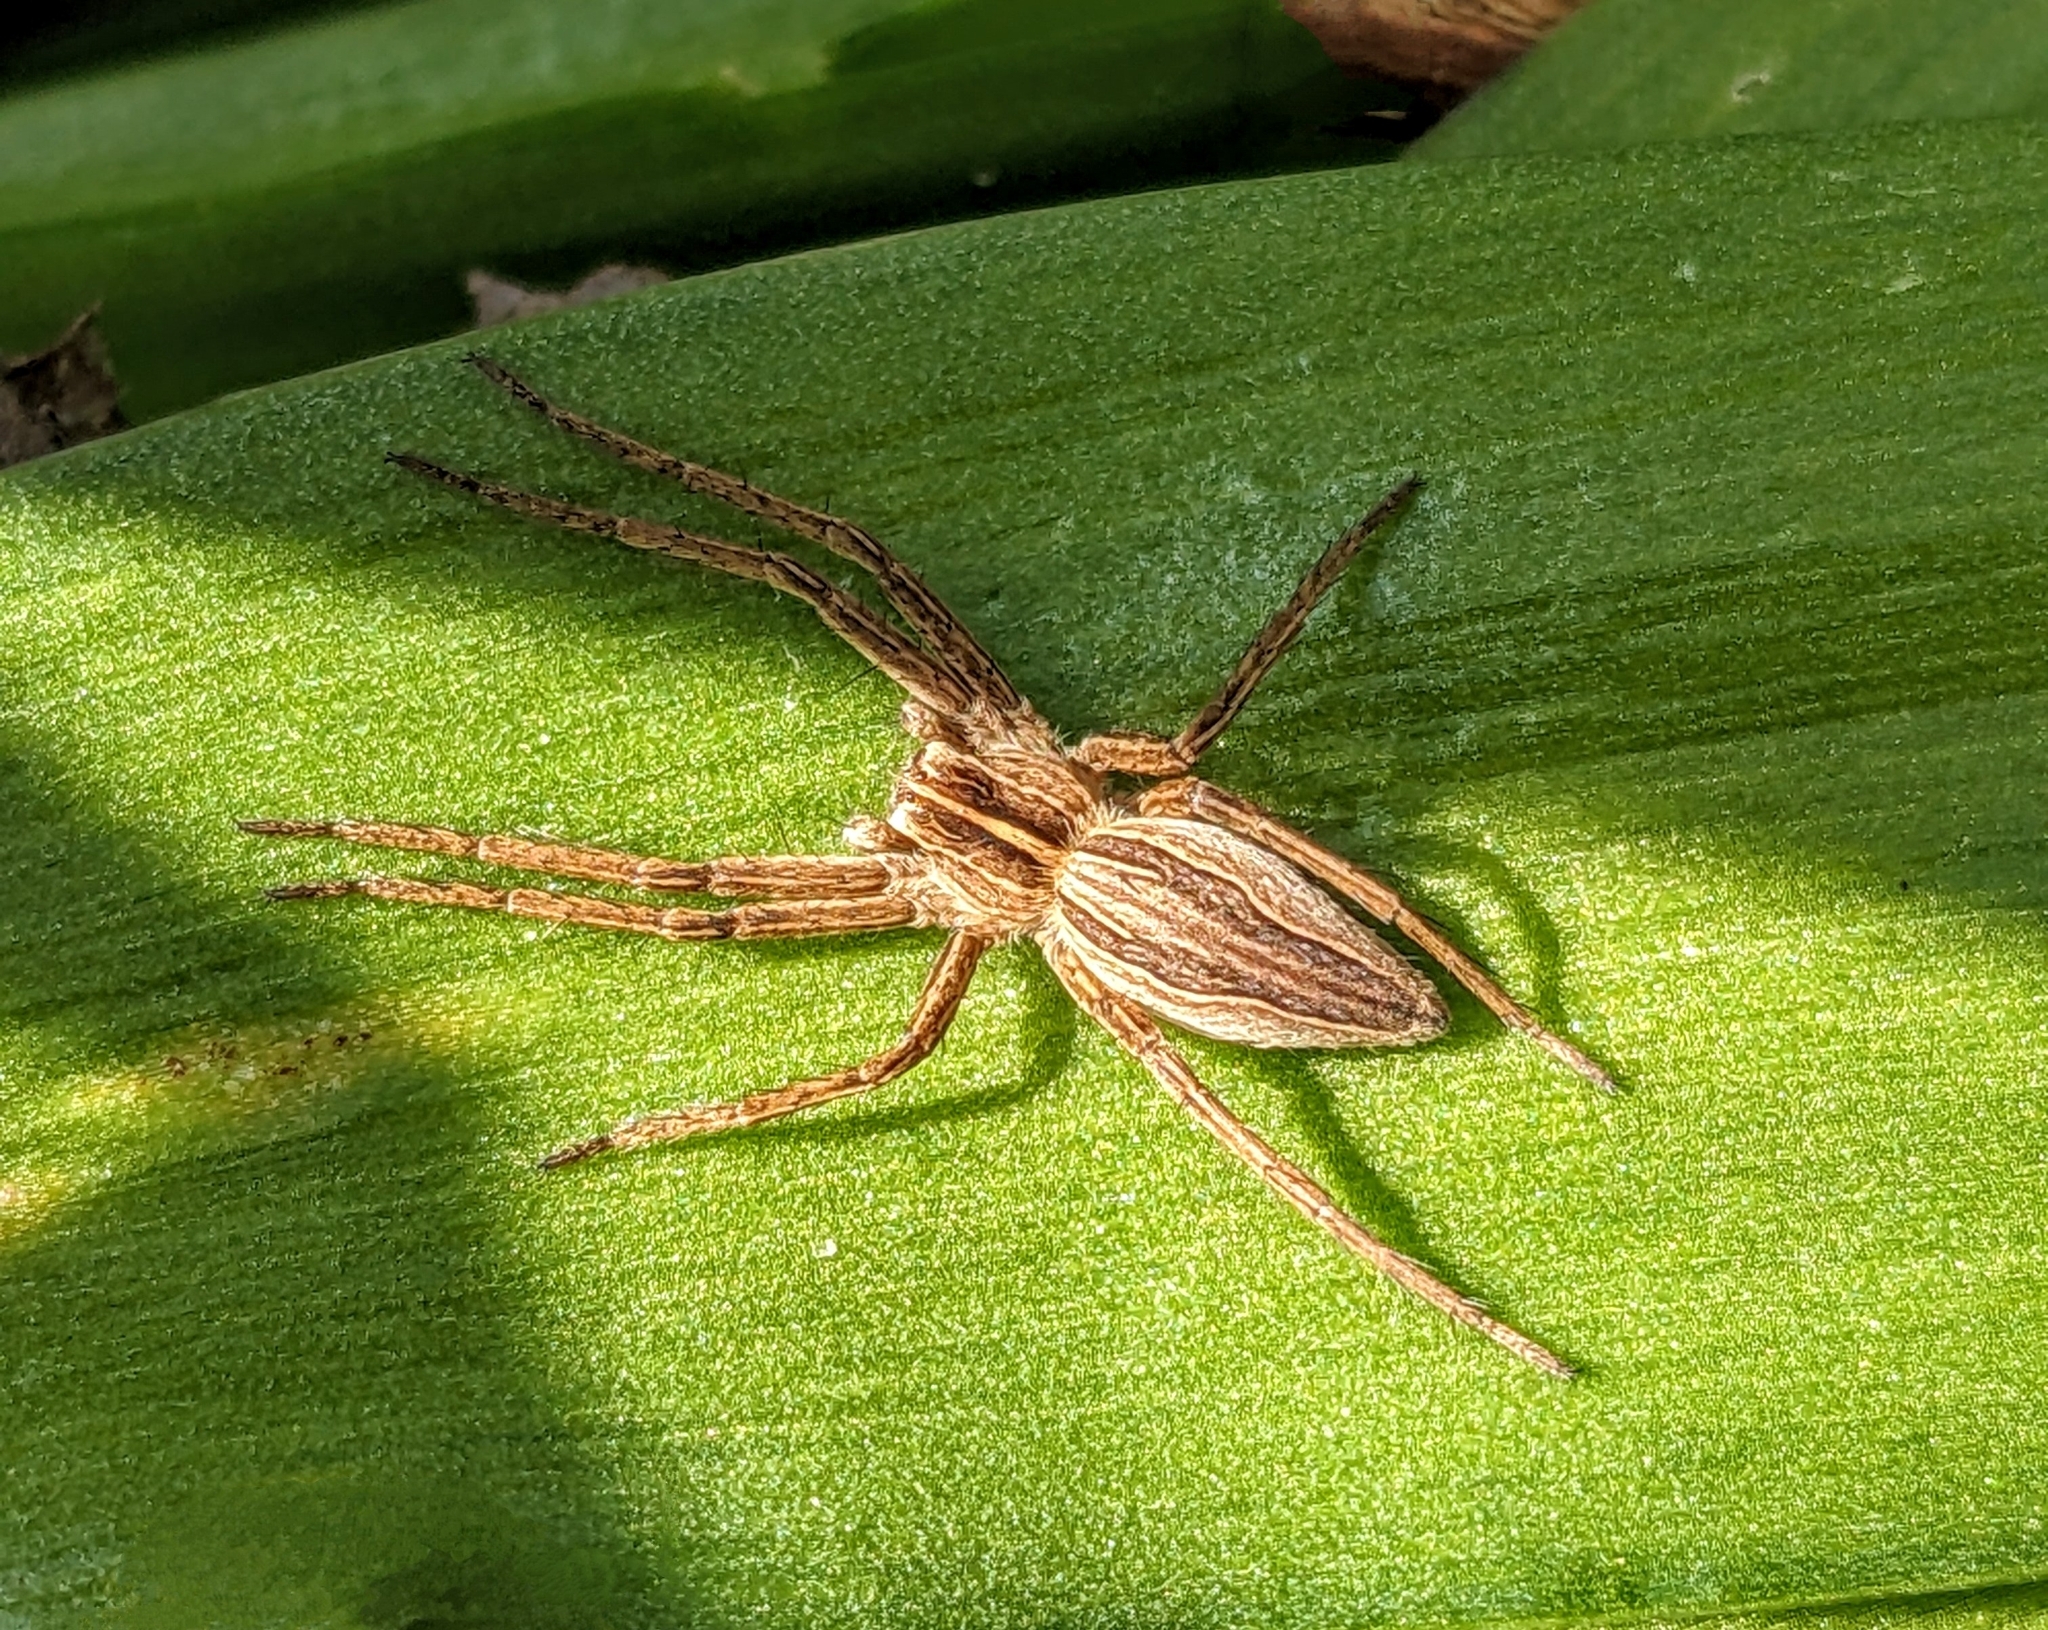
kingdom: Animalia
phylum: Arthropoda
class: Arachnida
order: Araneae
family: Pisauridae
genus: Pisaura
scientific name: Pisaura mirabilis
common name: Tent spider
